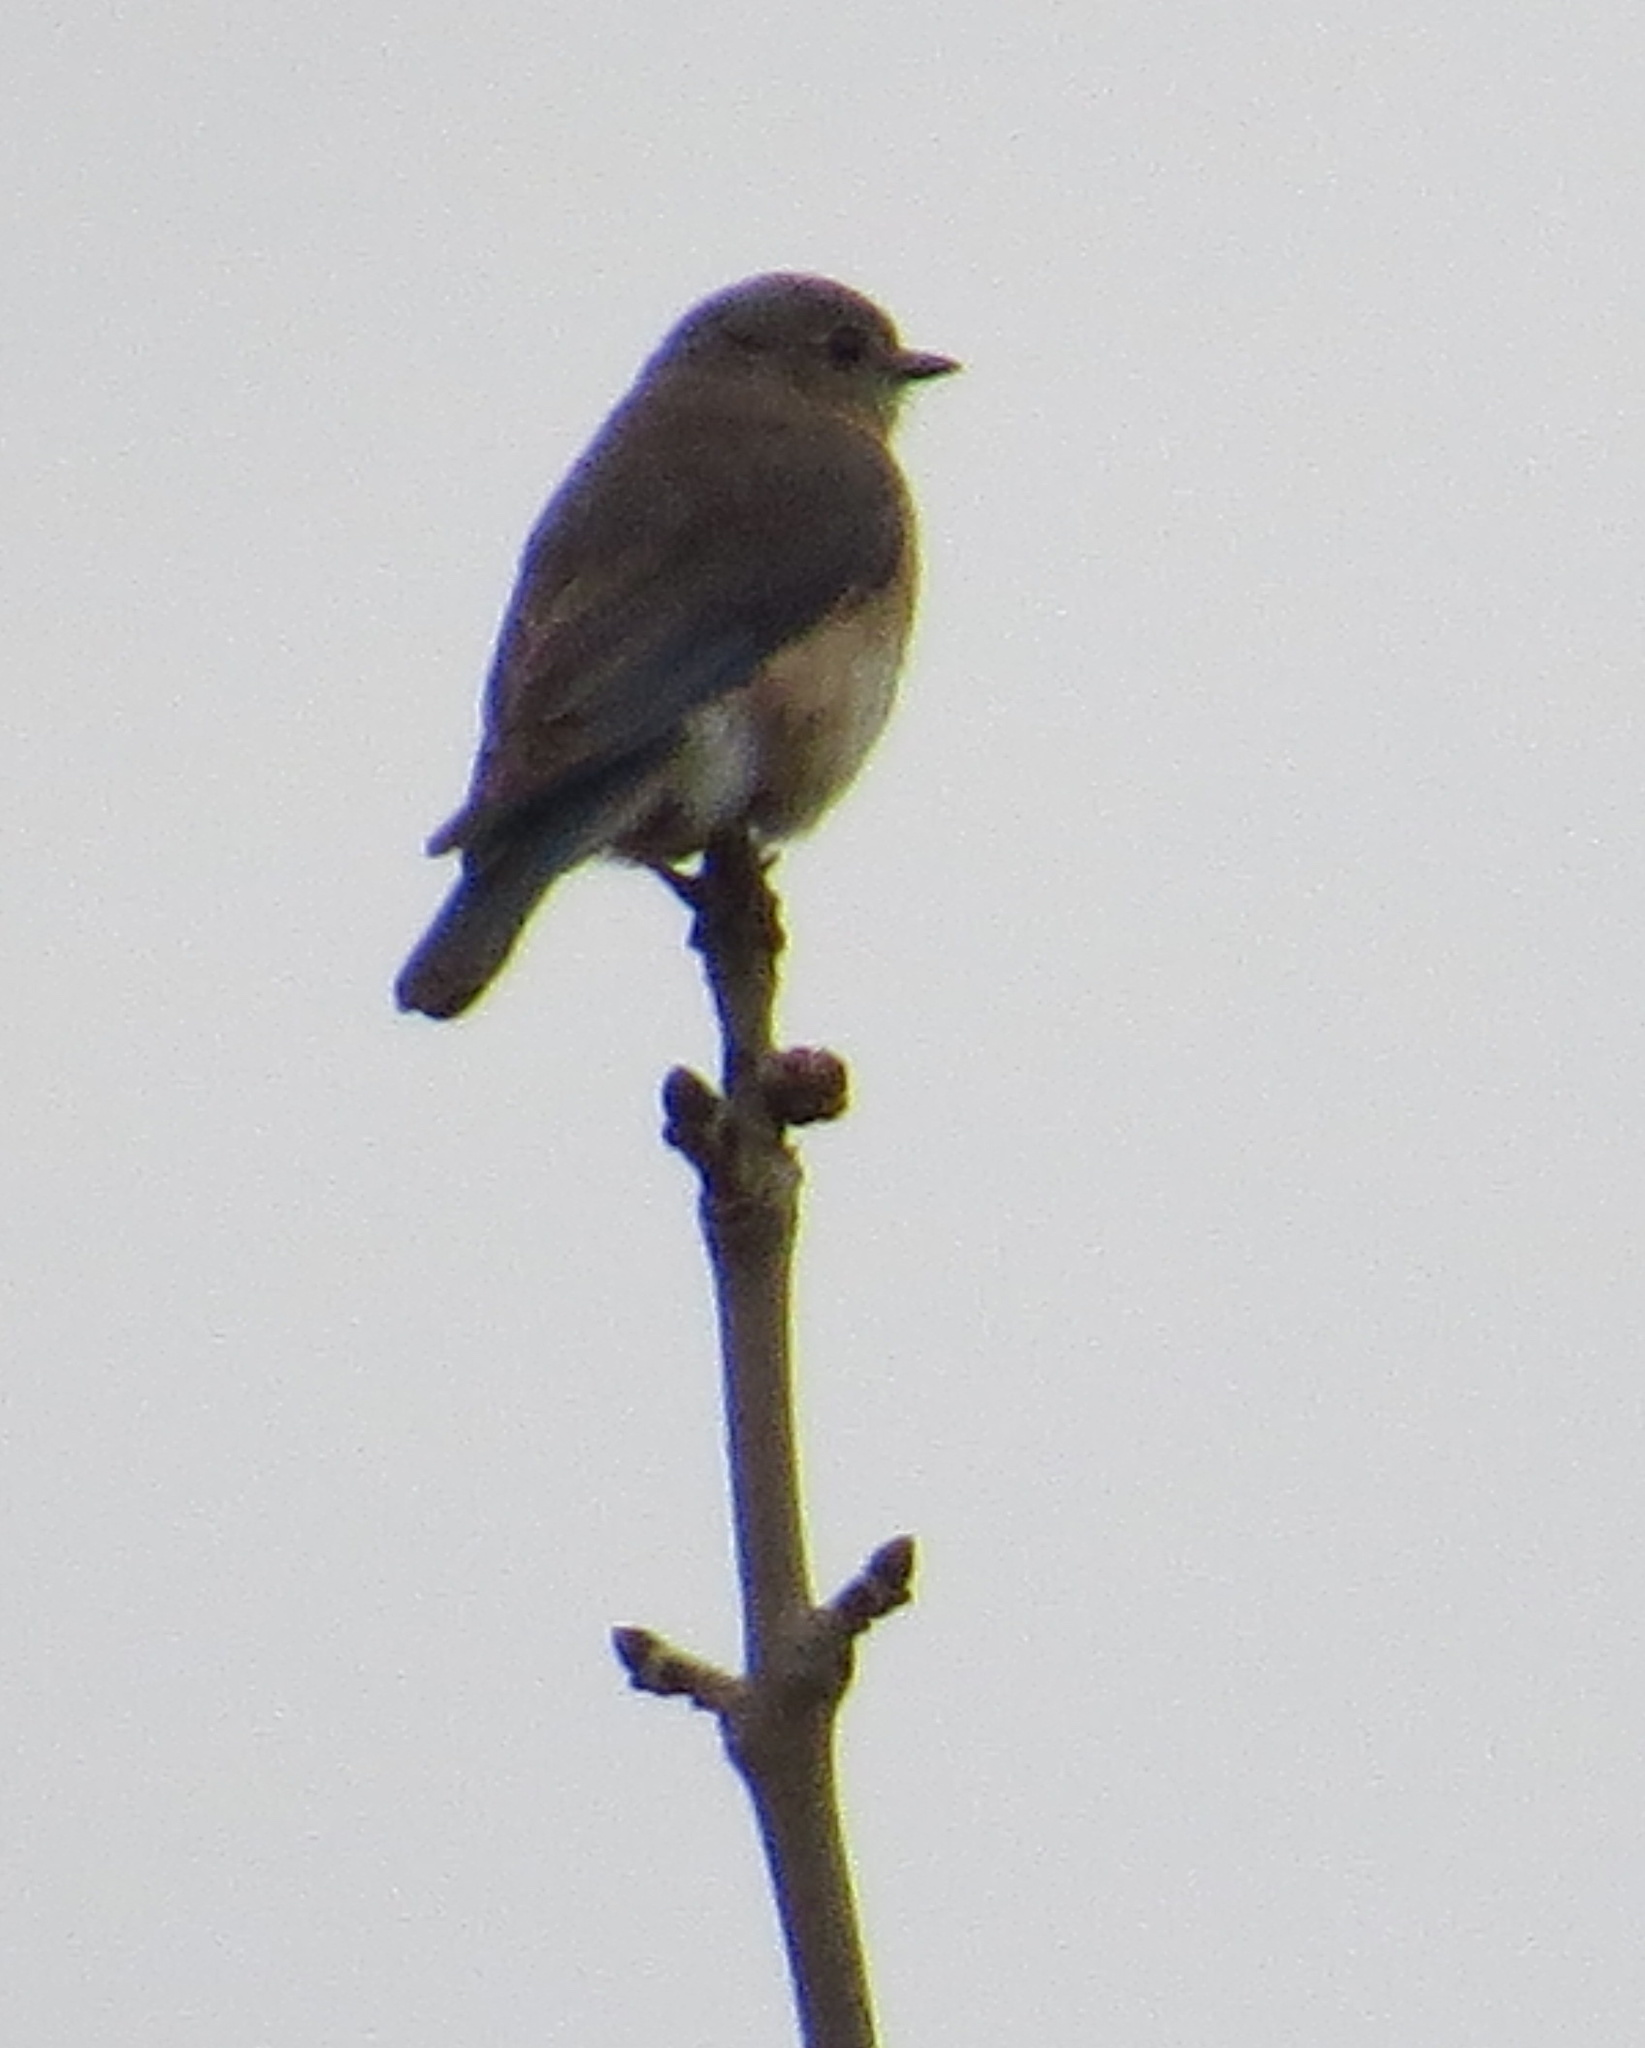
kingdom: Animalia
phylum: Chordata
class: Aves
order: Passeriformes
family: Turdidae
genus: Sialia
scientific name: Sialia sialis
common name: Eastern bluebird
